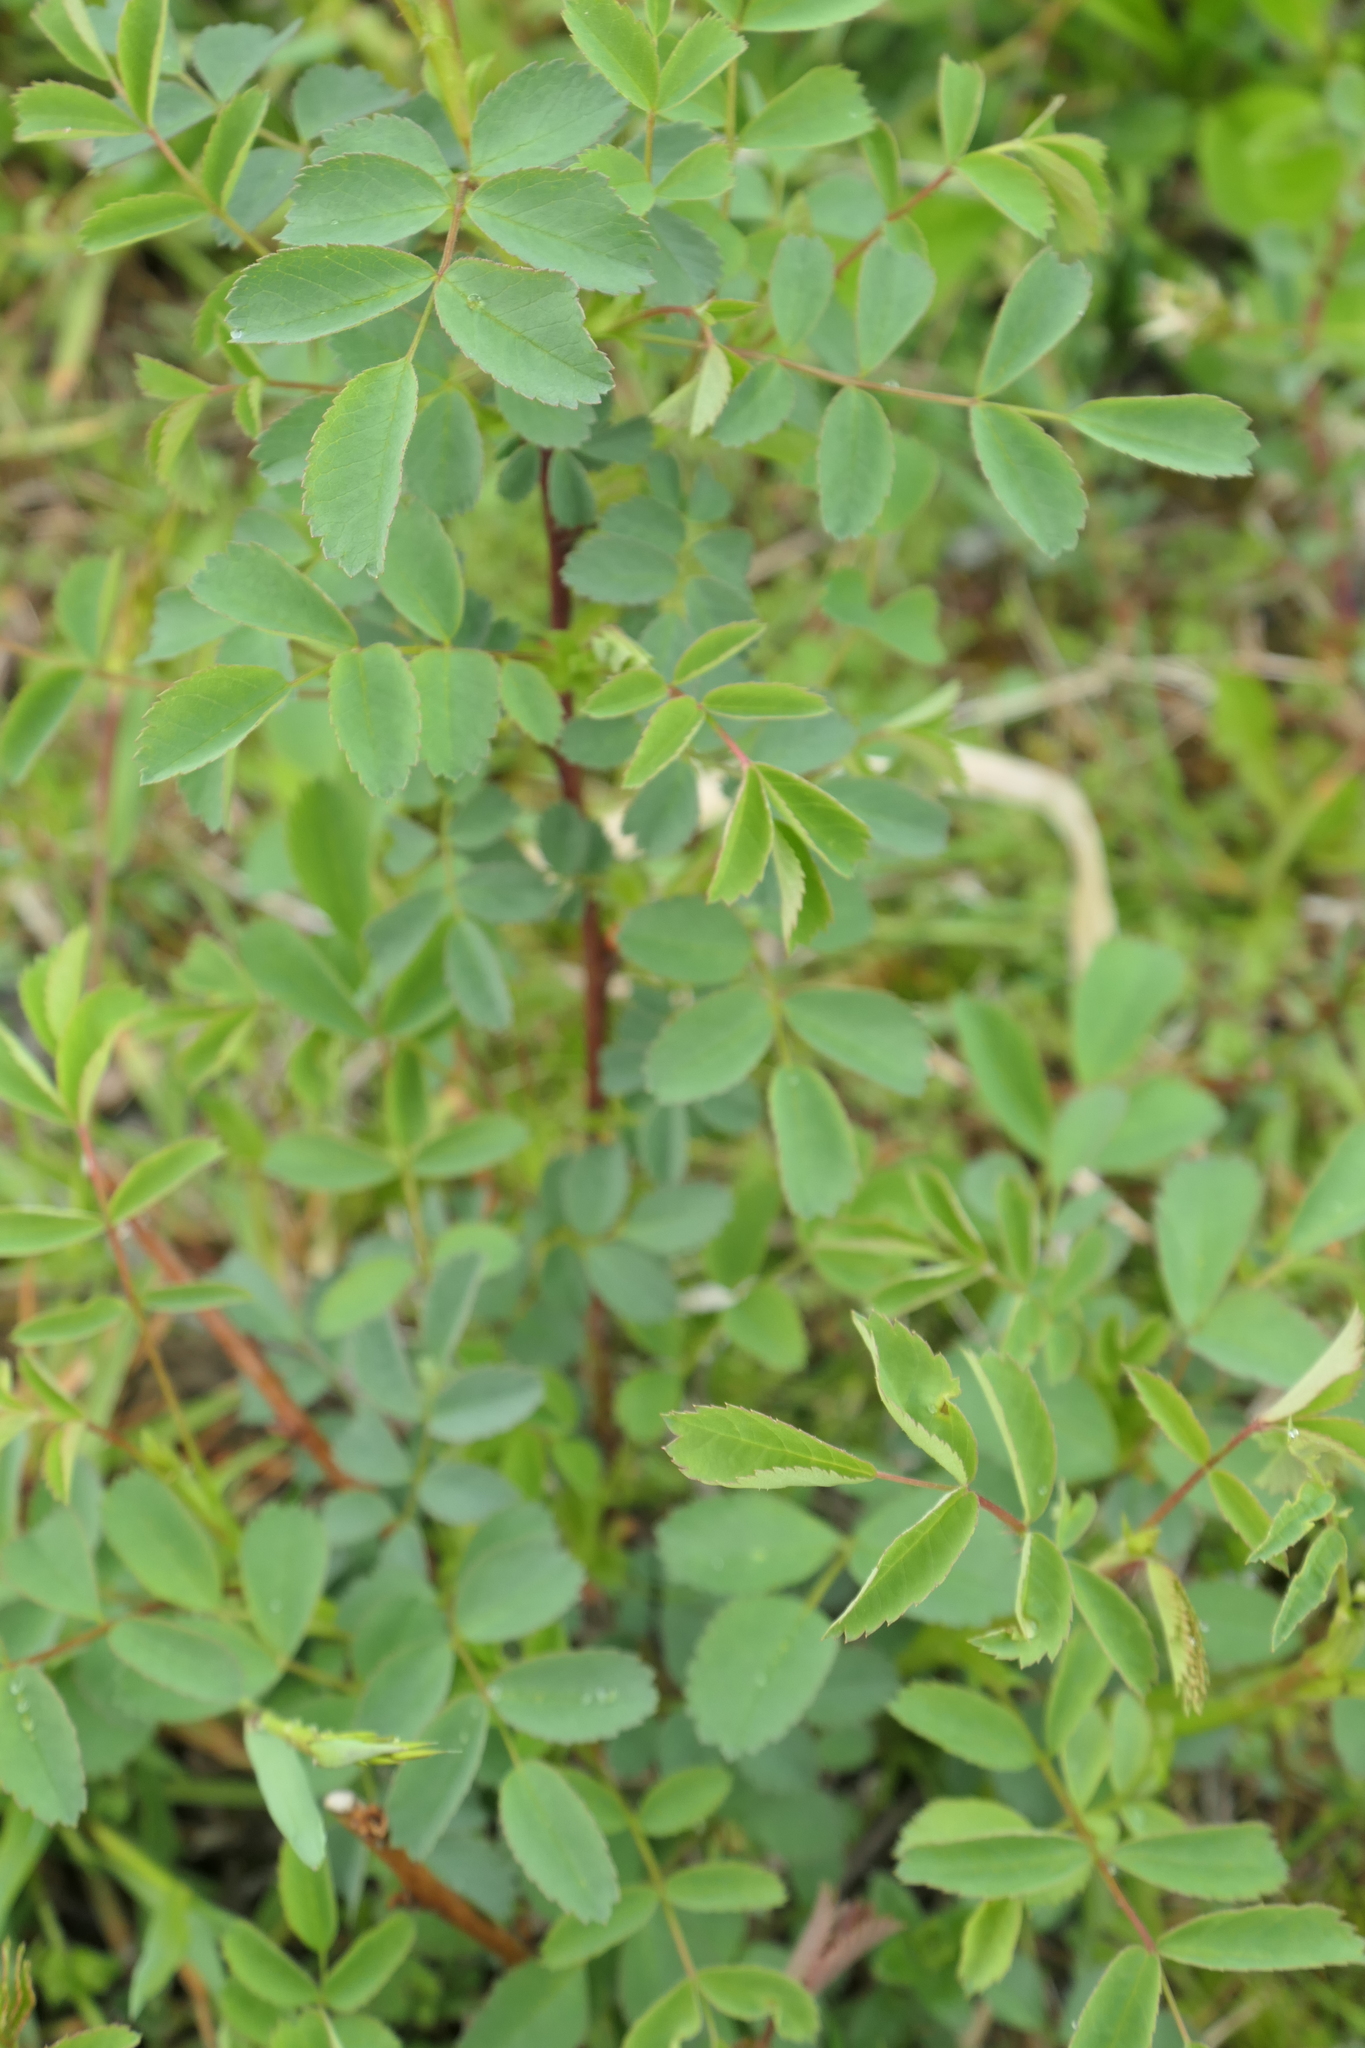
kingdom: Plantae
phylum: Tracheophyta
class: Magnoliopsida
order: Rosales
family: Rosaceae
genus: Rosa
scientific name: Rosa nutkana
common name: Nootka rose
